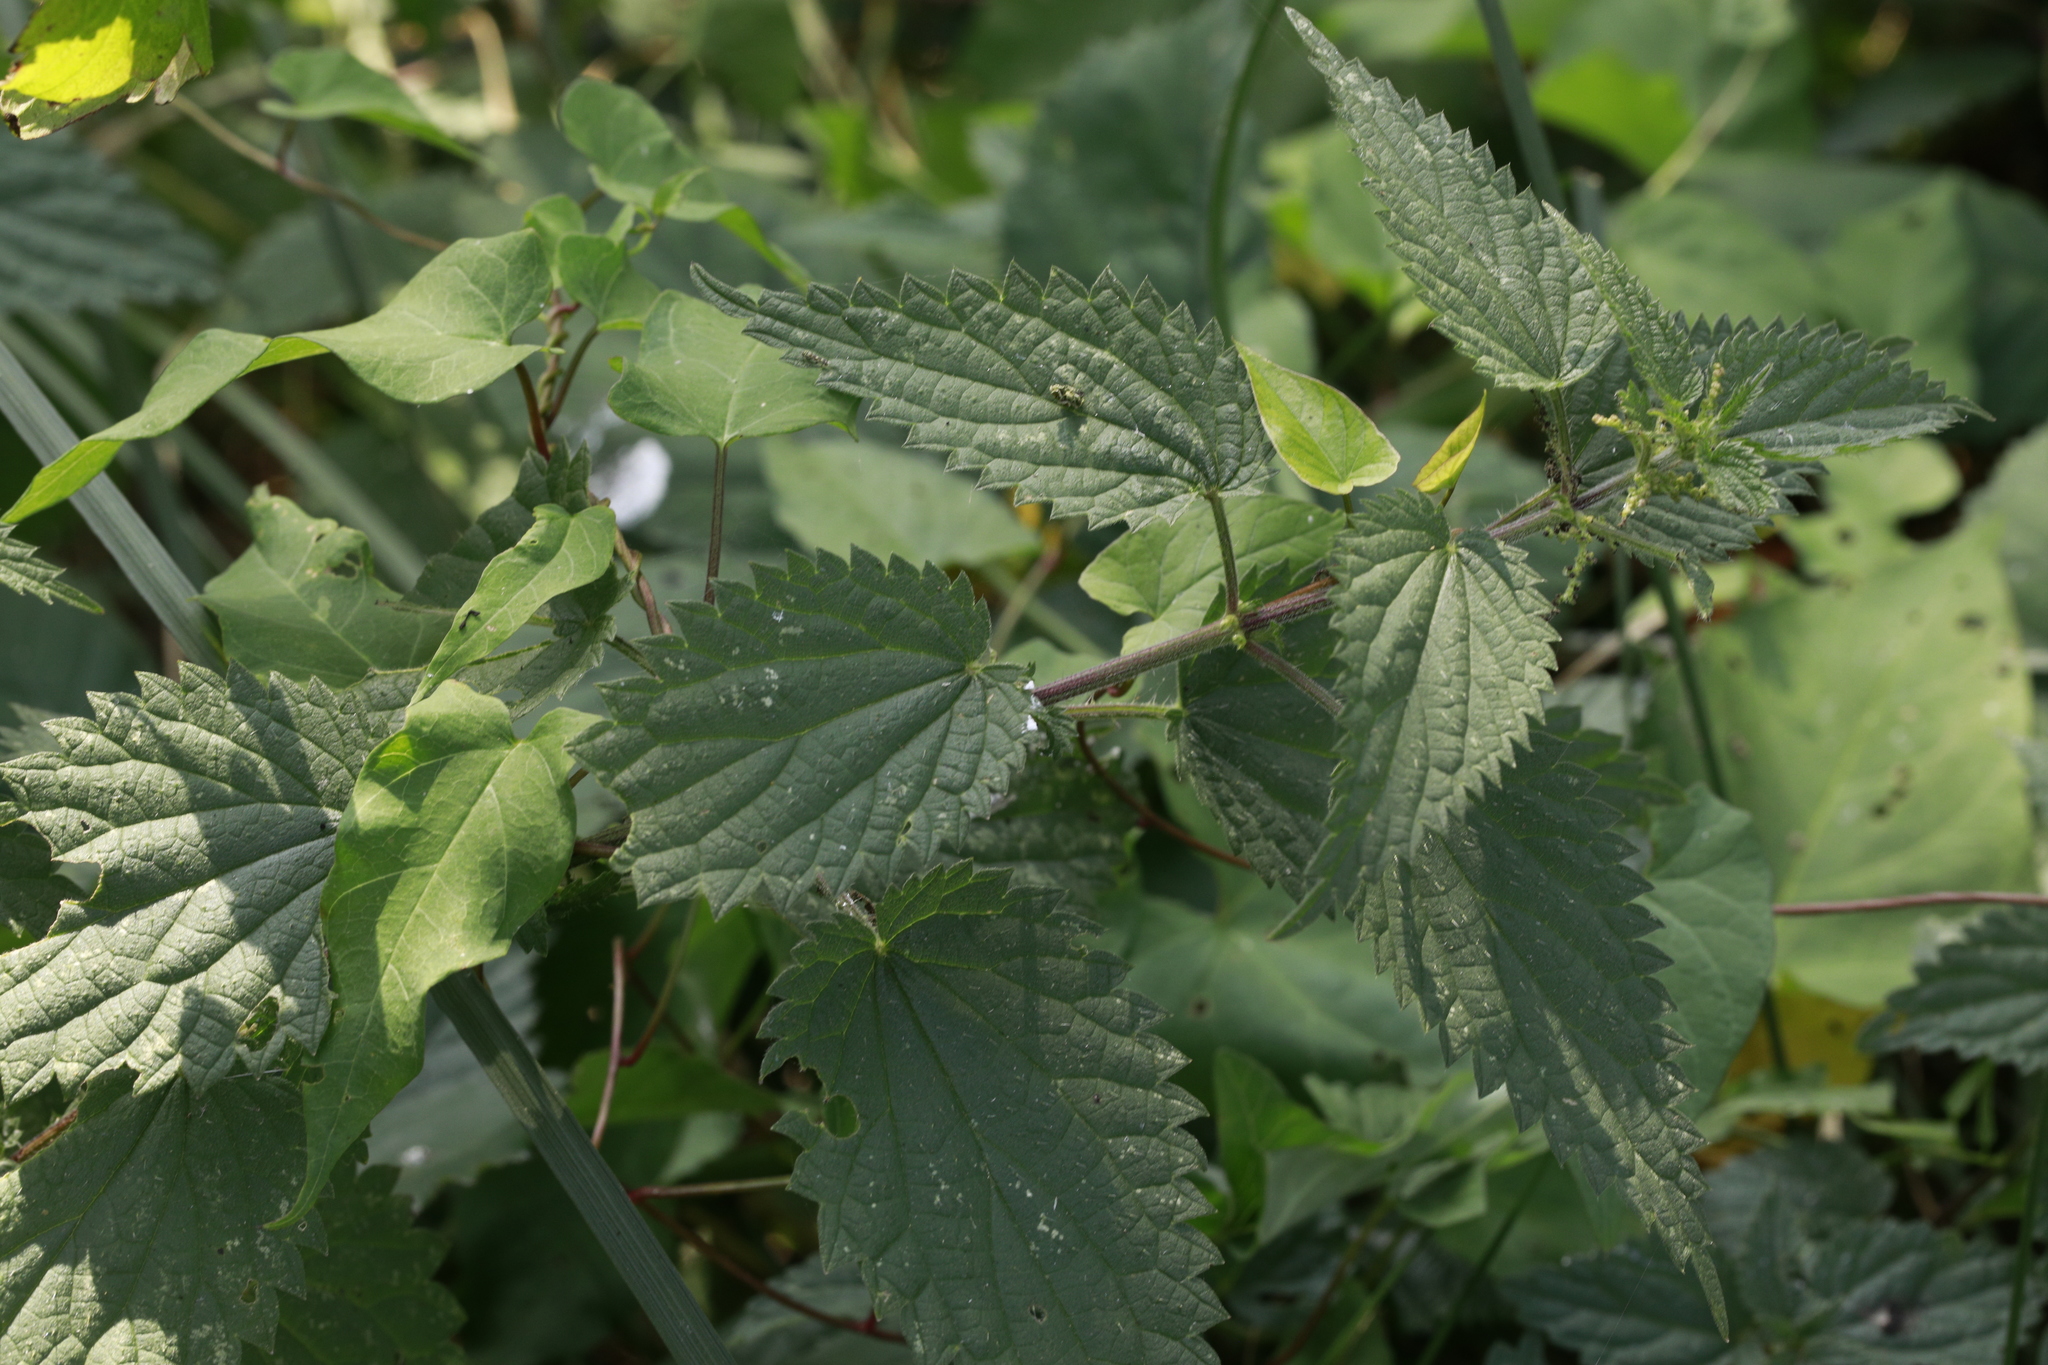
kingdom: Plantae
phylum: Tracheophyta
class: Magnoliopsida
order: Rosales
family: Urticaceae
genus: Urtica
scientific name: Urtica dioica
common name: Common nettle
